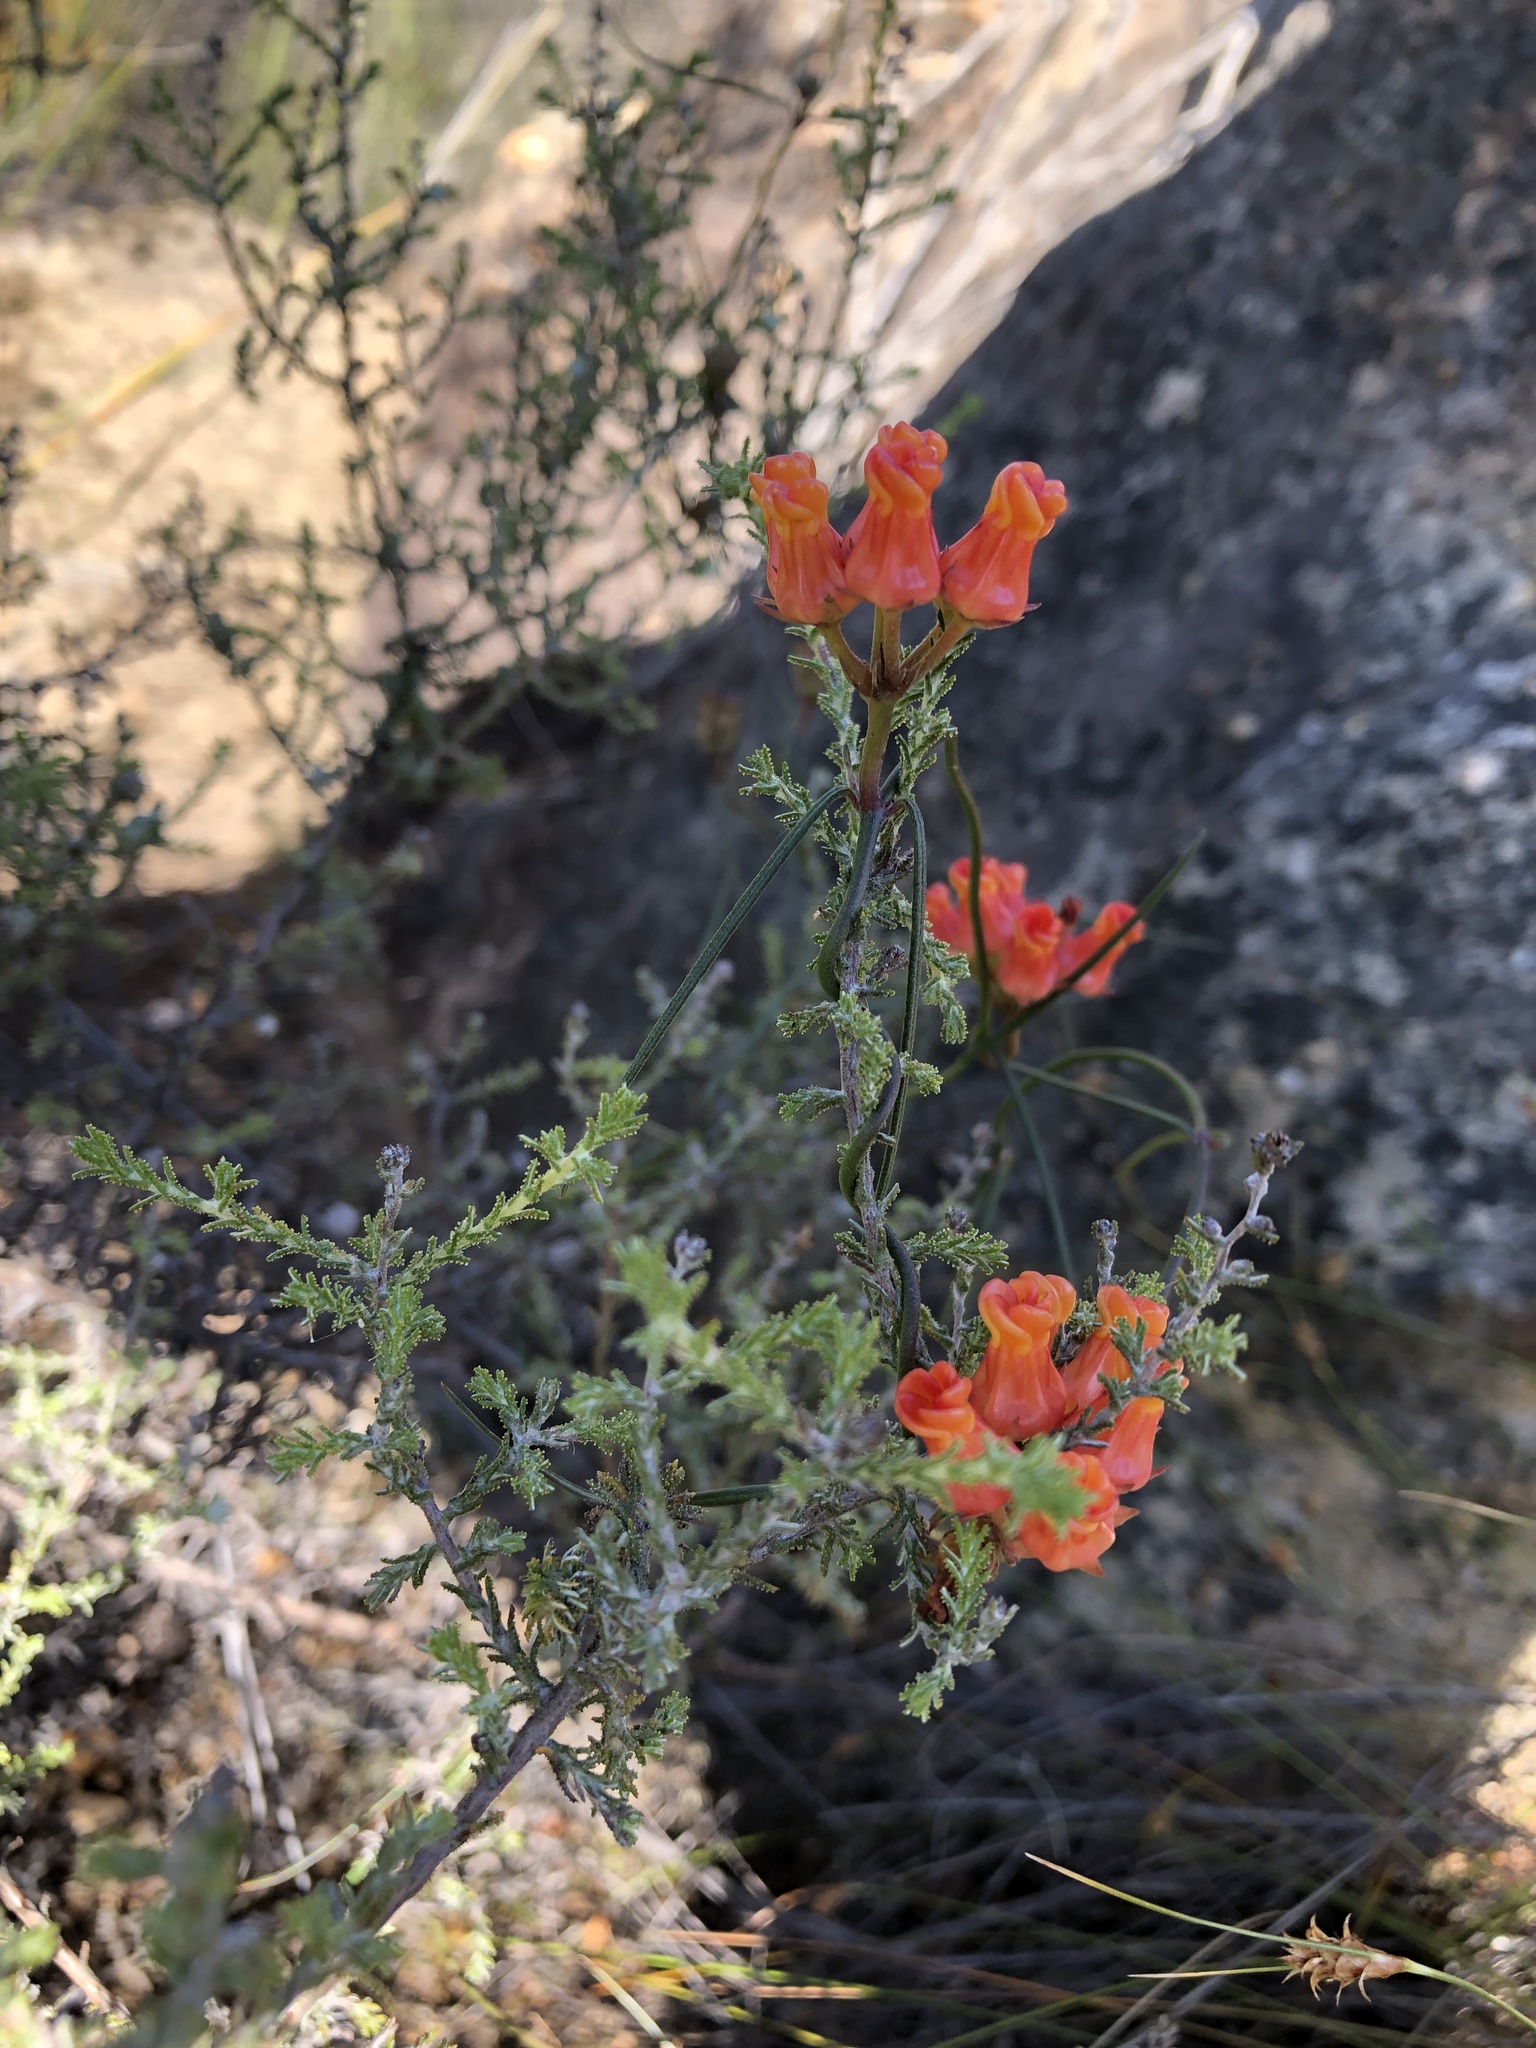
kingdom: Plantae
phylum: Tracheophyta
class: Magnoliopsida
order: Gentianales
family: Apocynaceae
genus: Microloma
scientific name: Microloma tenuifolium
